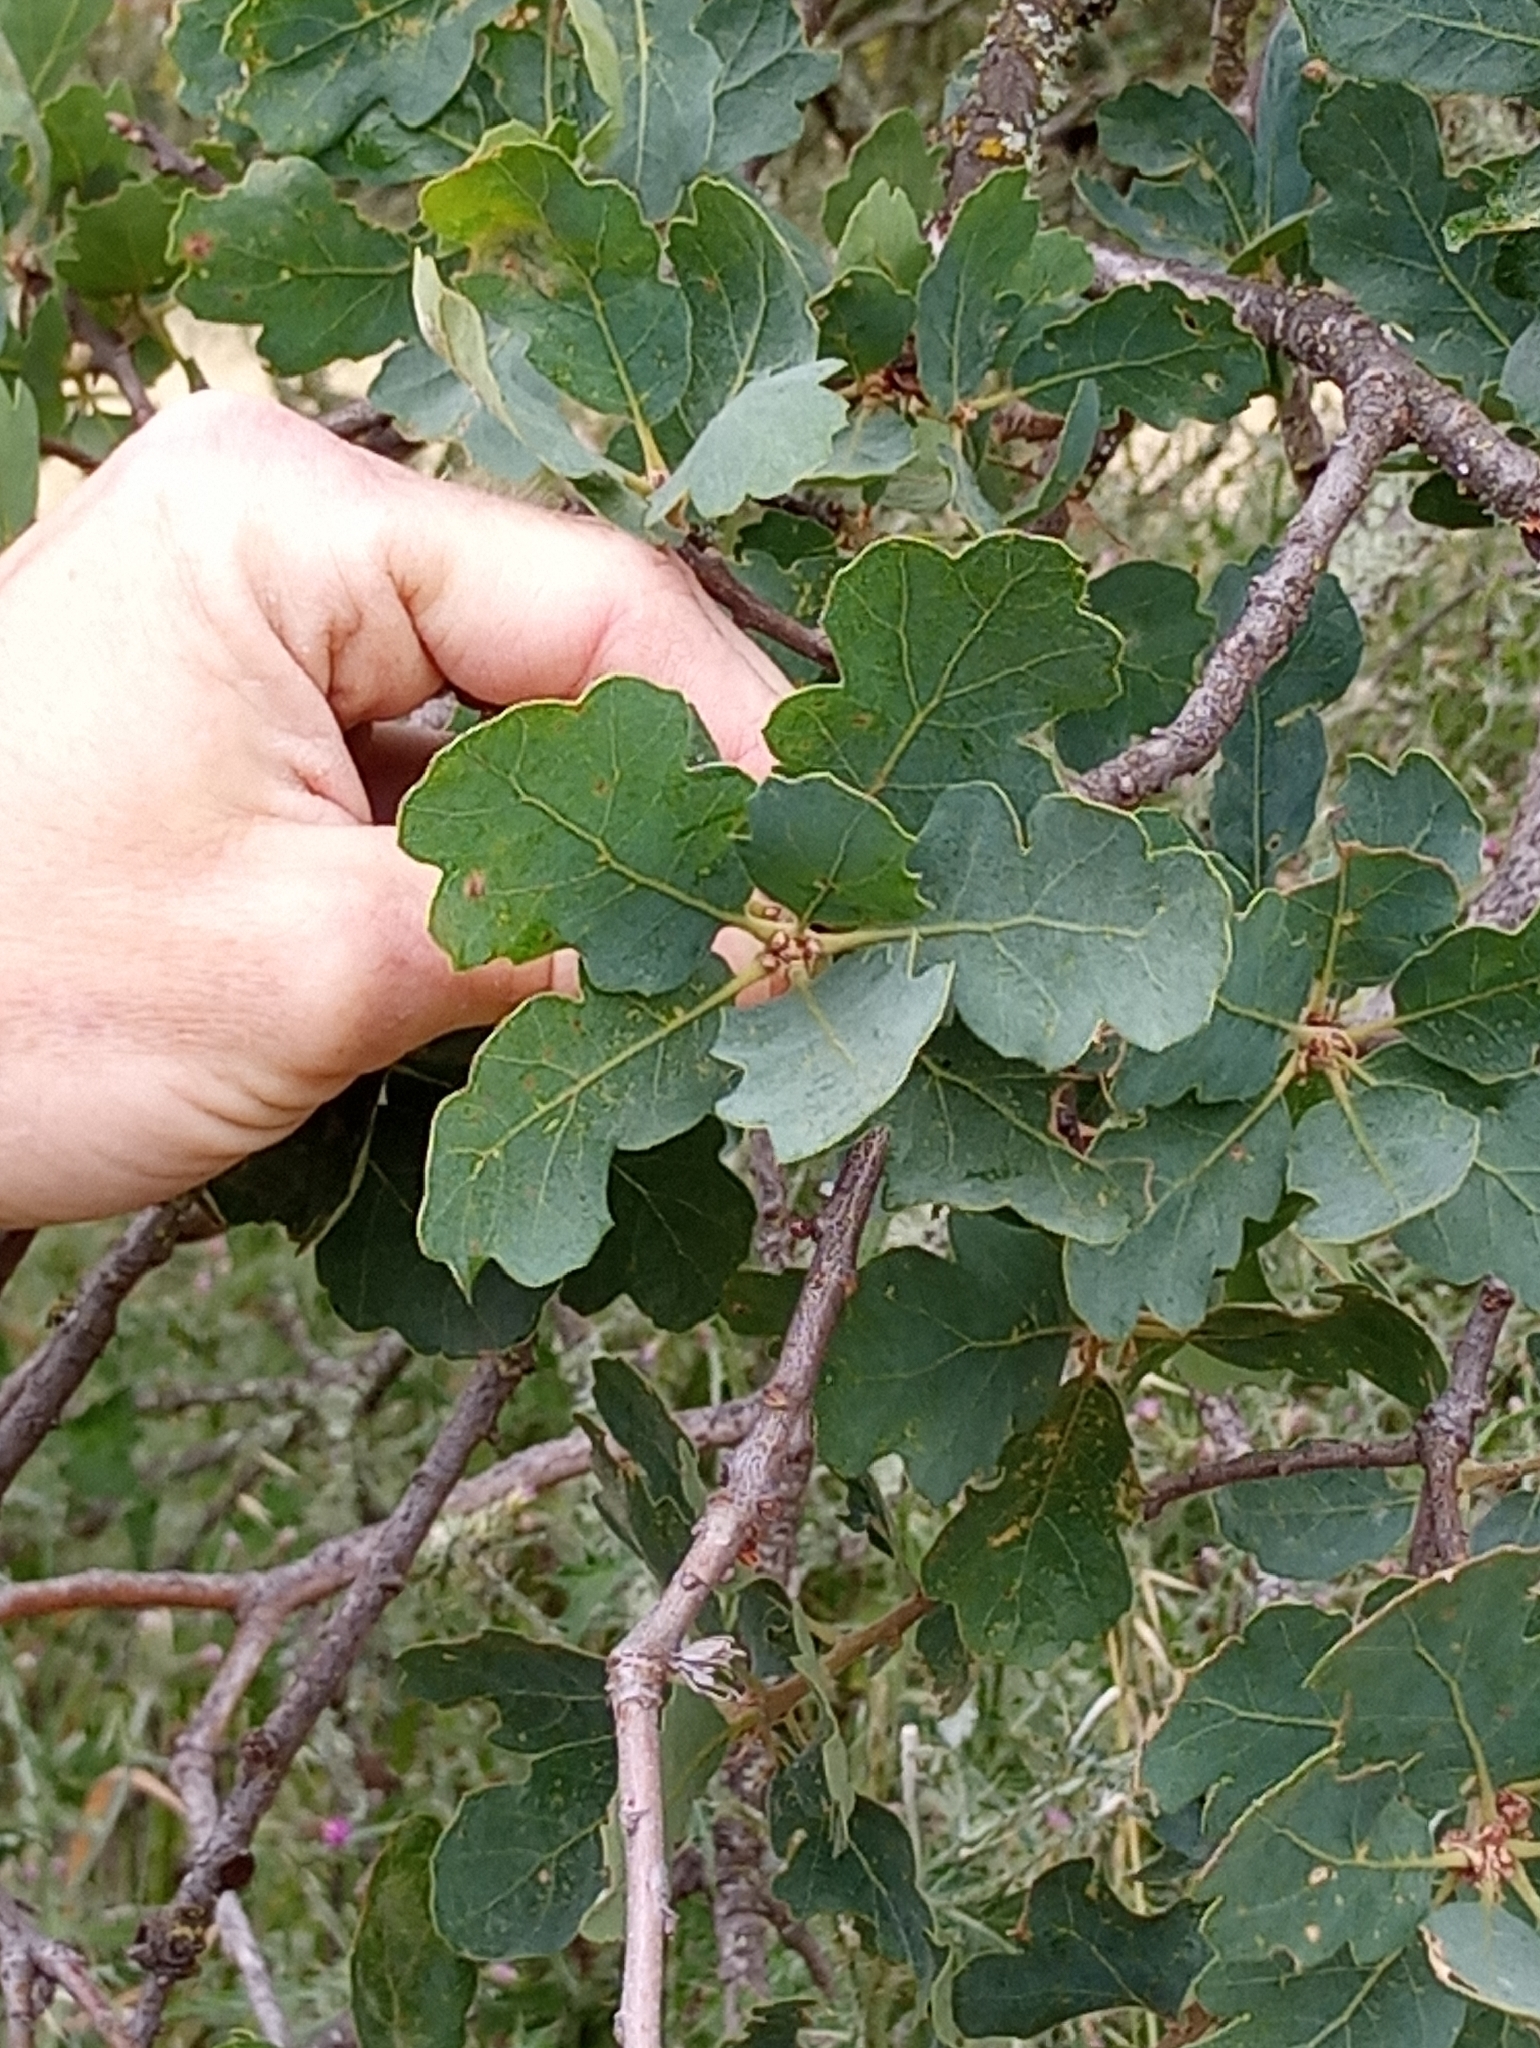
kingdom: Plantae
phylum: Tracheophyta
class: Magnoliopsida
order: Fagales
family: Fagaceae
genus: Quercus
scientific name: Quercus douglasii
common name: Blue oak
